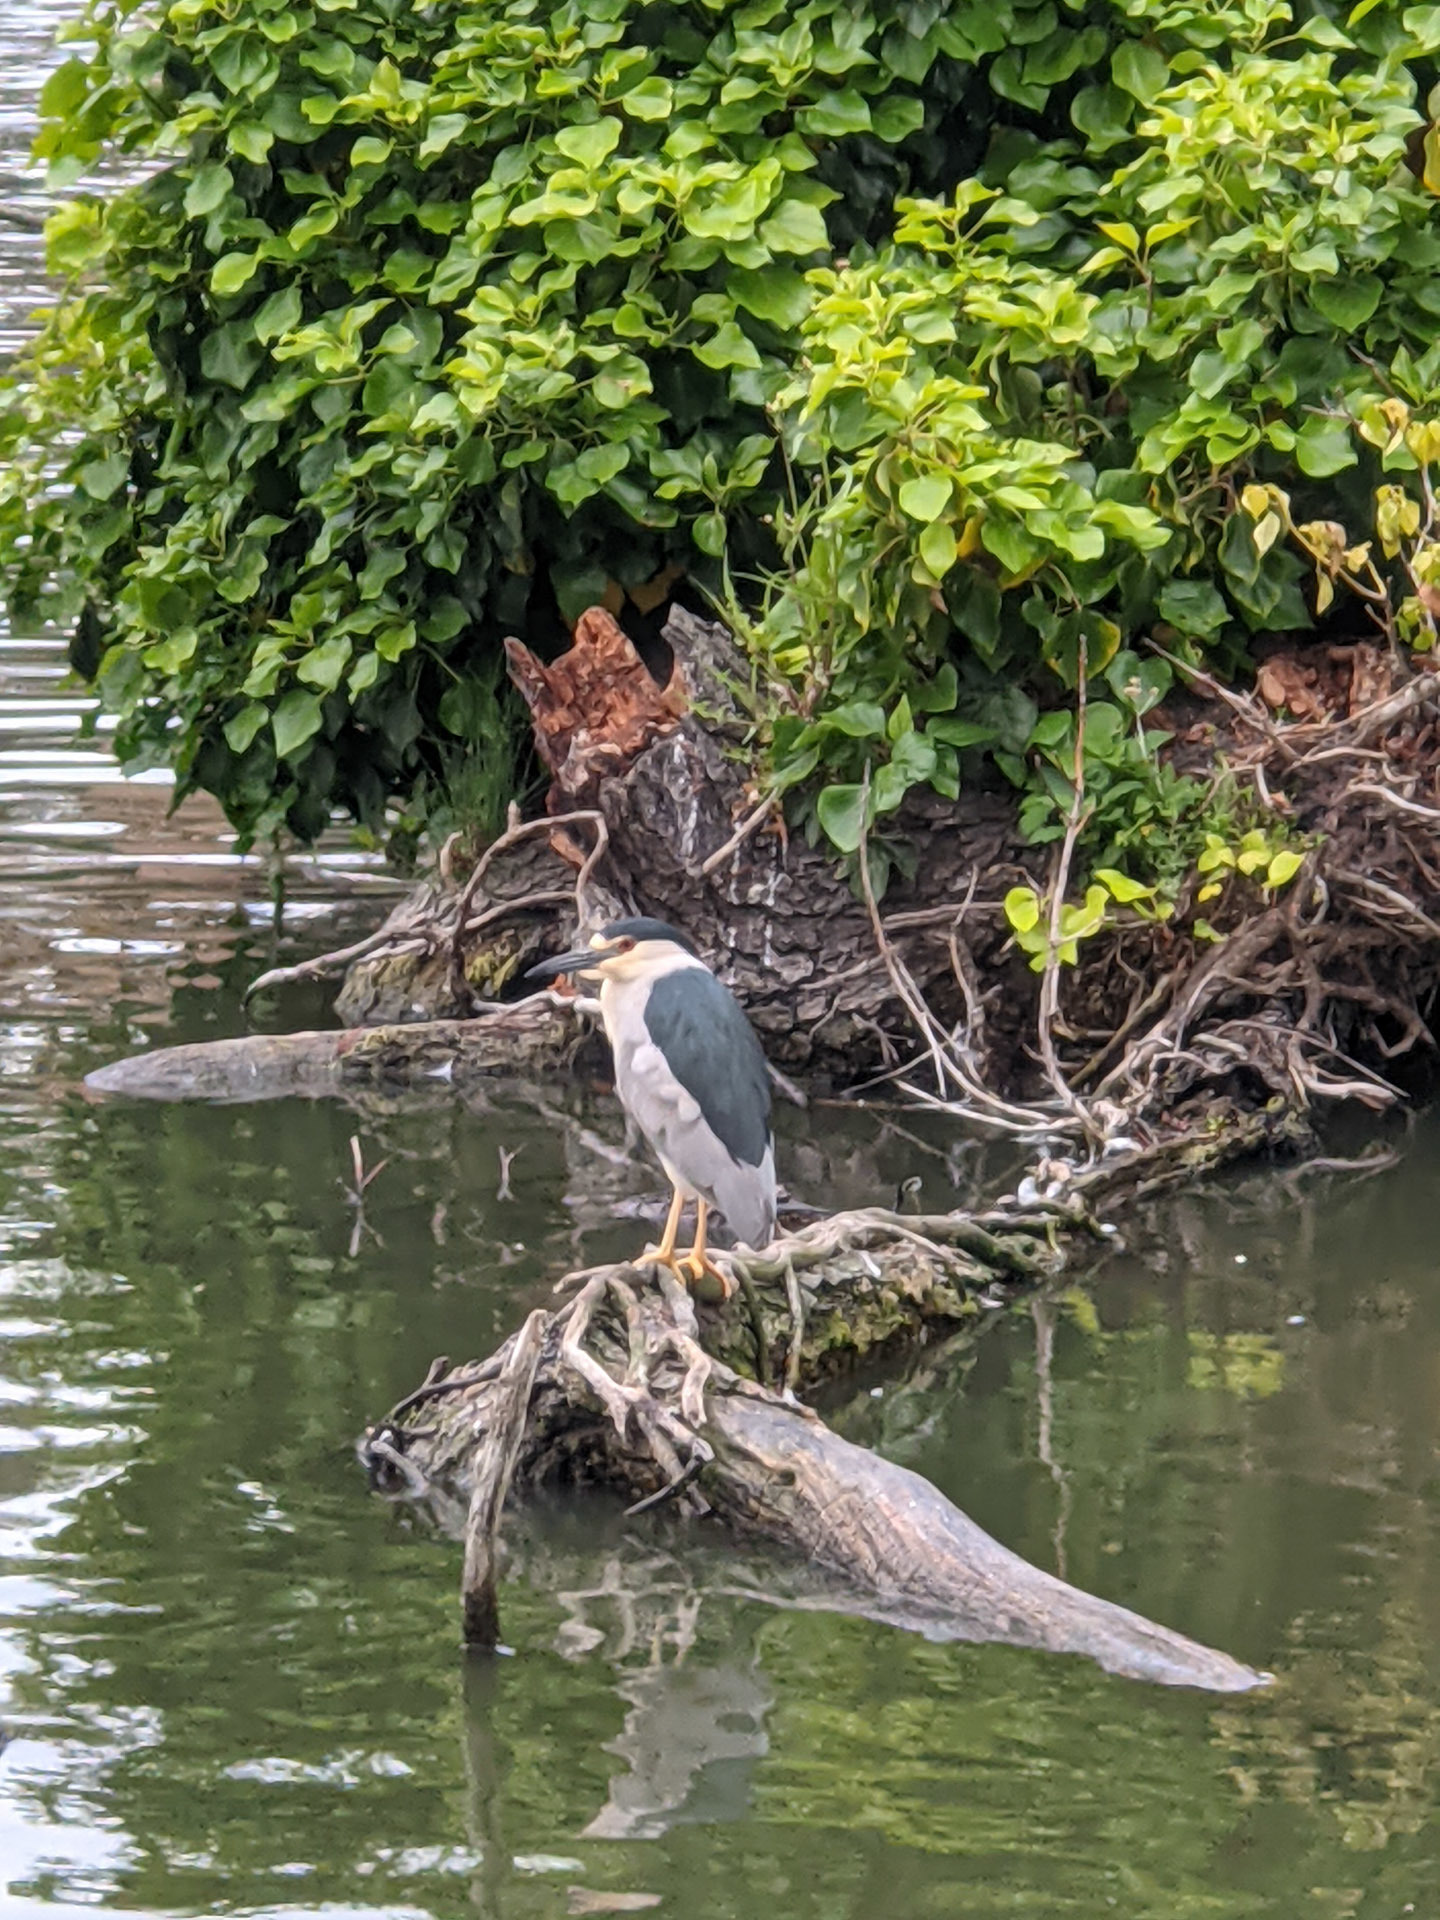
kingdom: Animalia
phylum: Chordata
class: Aves
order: Pelecaniformes
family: Ardeidae
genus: Nycticorax
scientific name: Nycticorax nycticorax
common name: Black-crowned night heron
